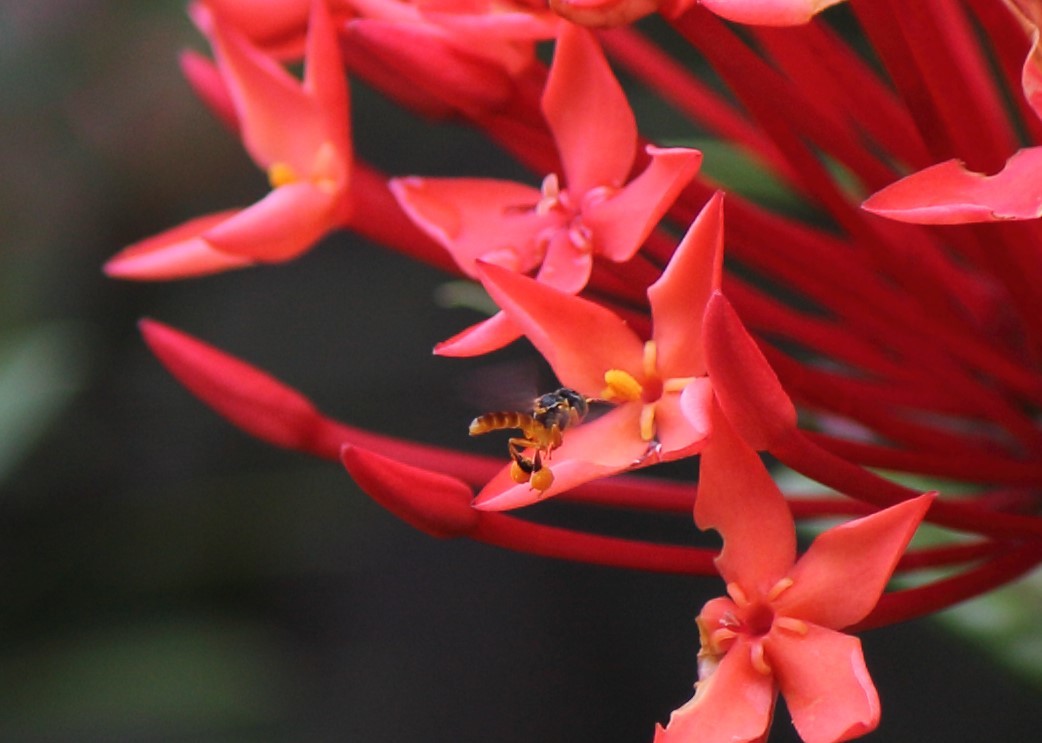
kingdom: Animalia
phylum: Arthropoda
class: Insecta
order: Hymenoptera
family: Apidae
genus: Tetragonisca
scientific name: Tetragonisca angustula
